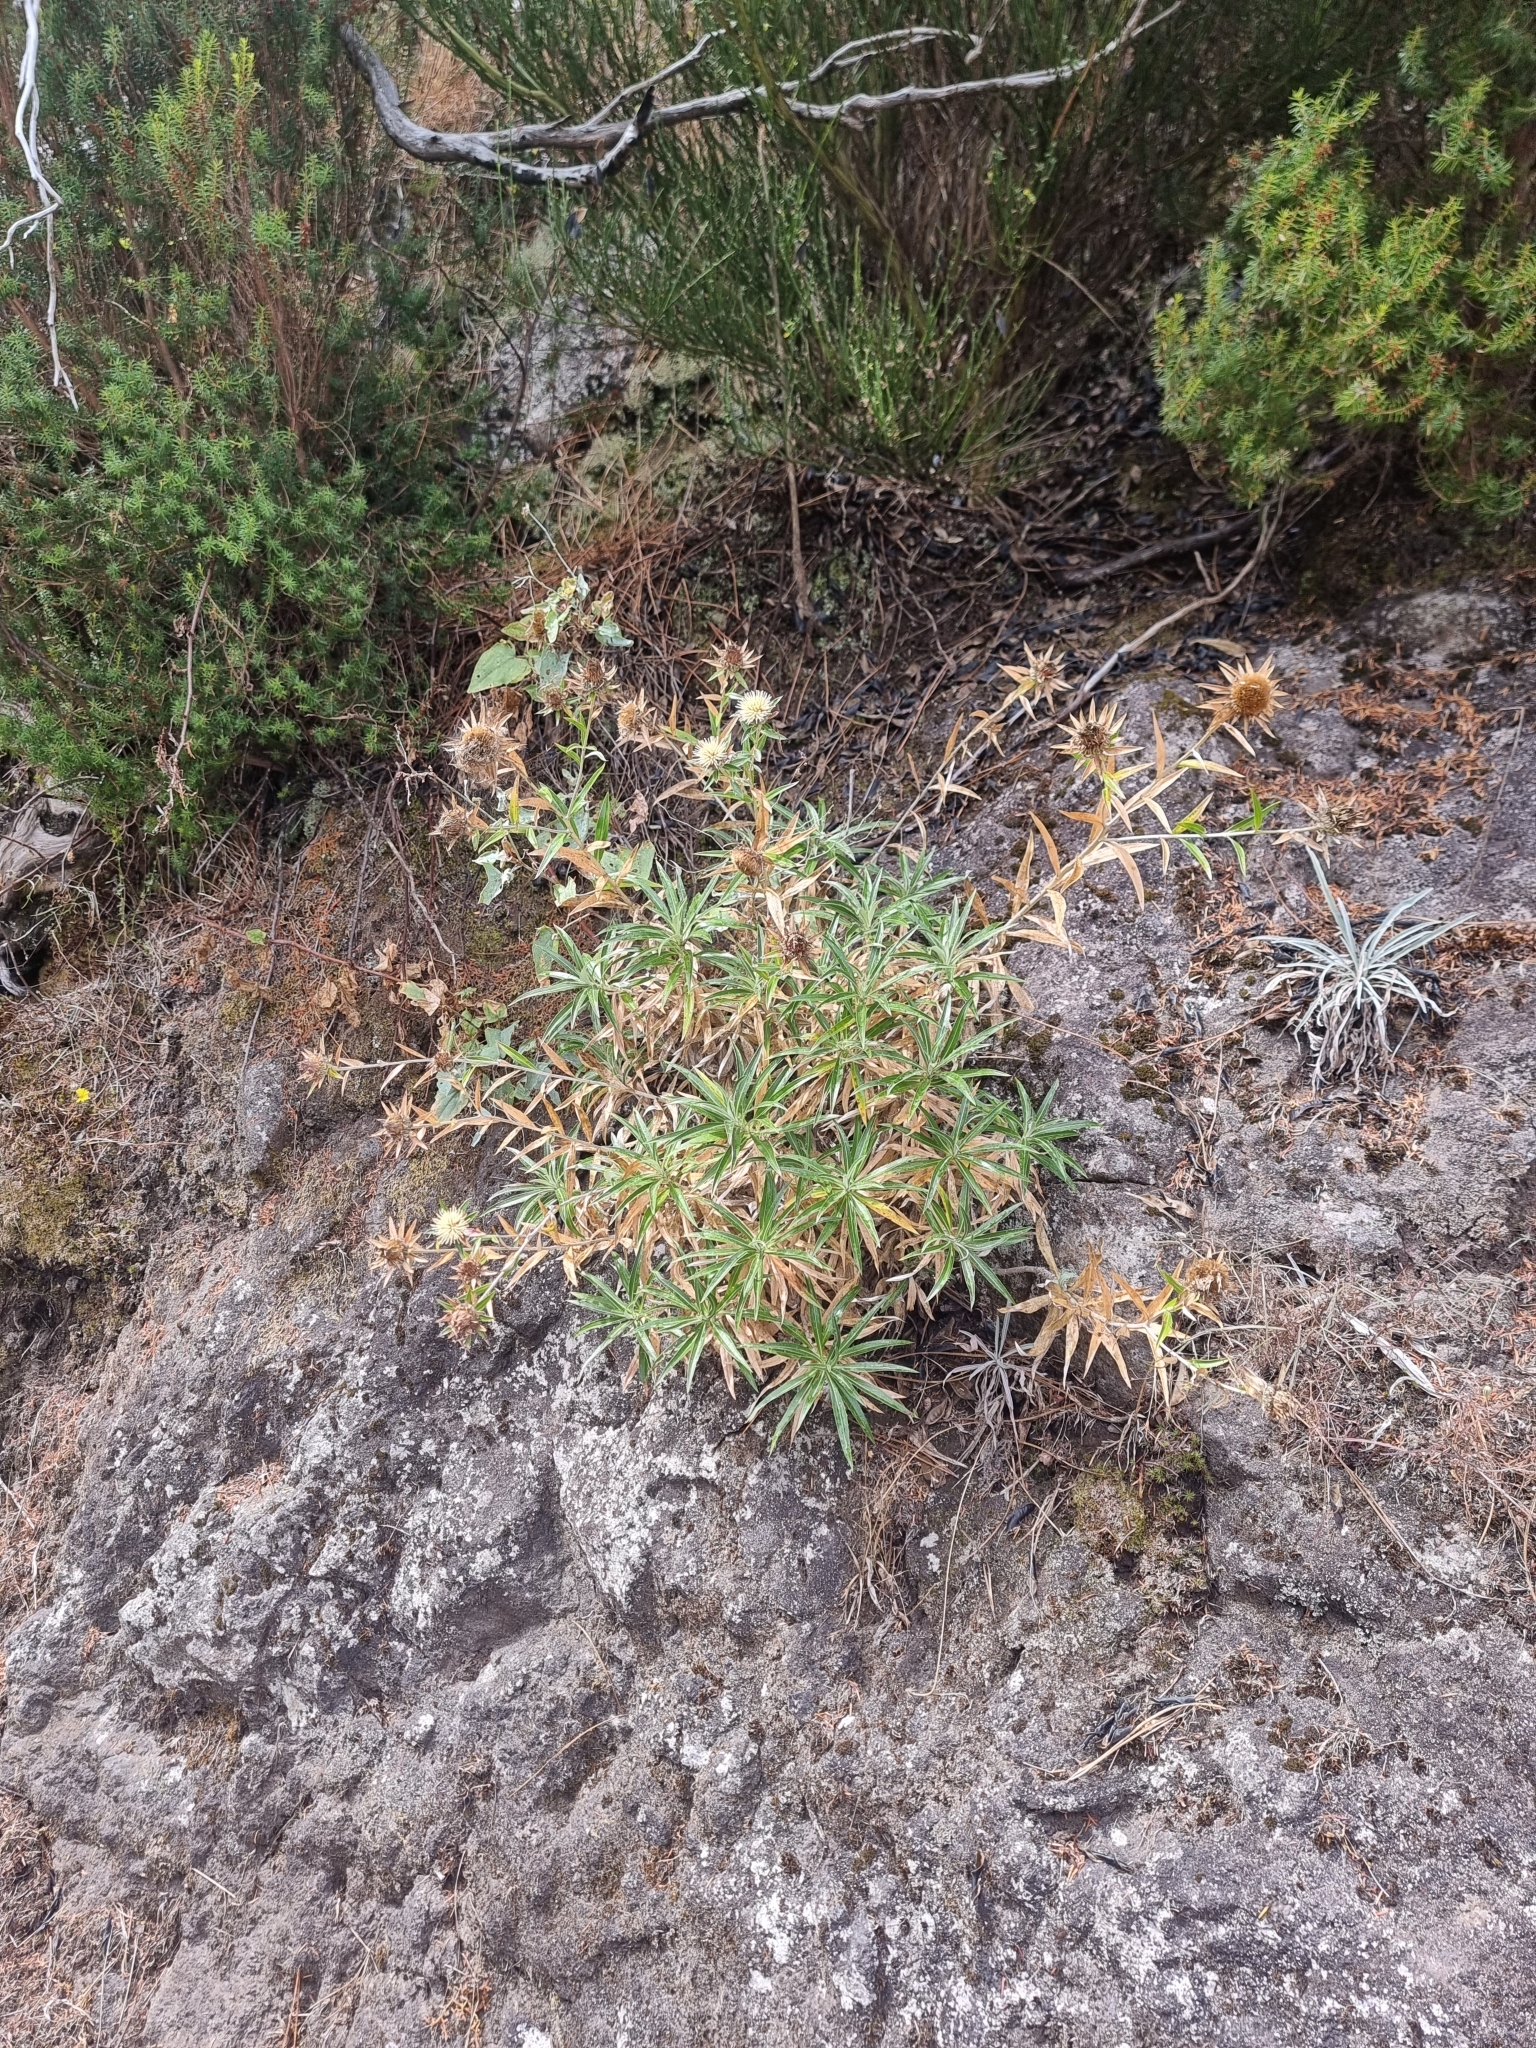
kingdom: Plantae
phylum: Tracheophyta
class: Magnoliopsida
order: Asterales
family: Asteraceae
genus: Carlina
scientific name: Carlina salicifolia
